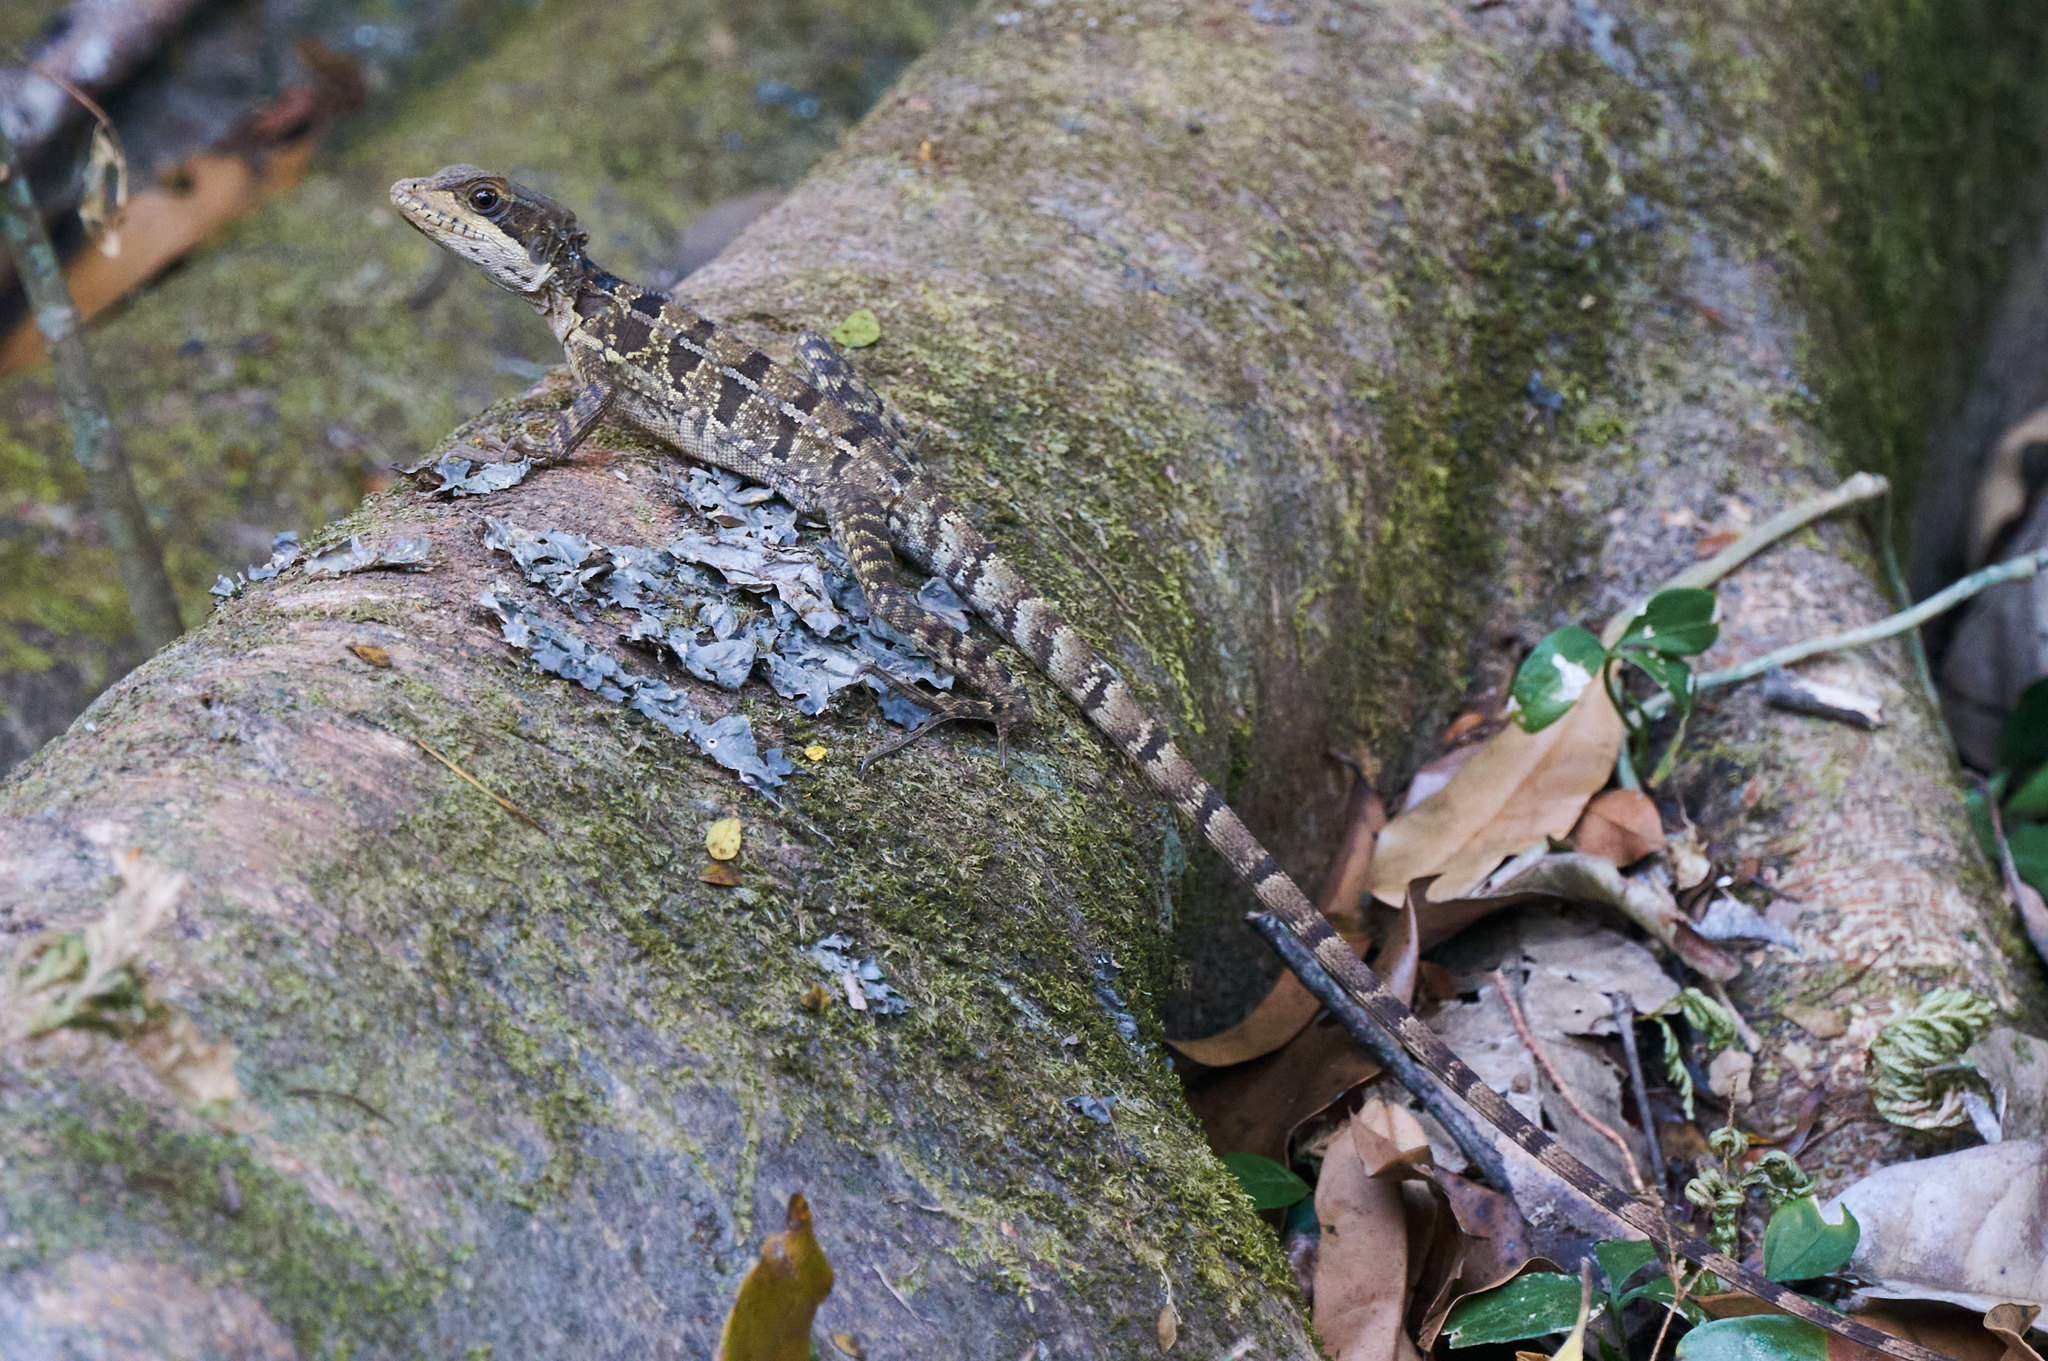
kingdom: Animalia
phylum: Chordata
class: Squamata
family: Corytophanidae
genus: Basiliscus
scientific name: Basiliscus vittatus
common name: Brown basilisk
